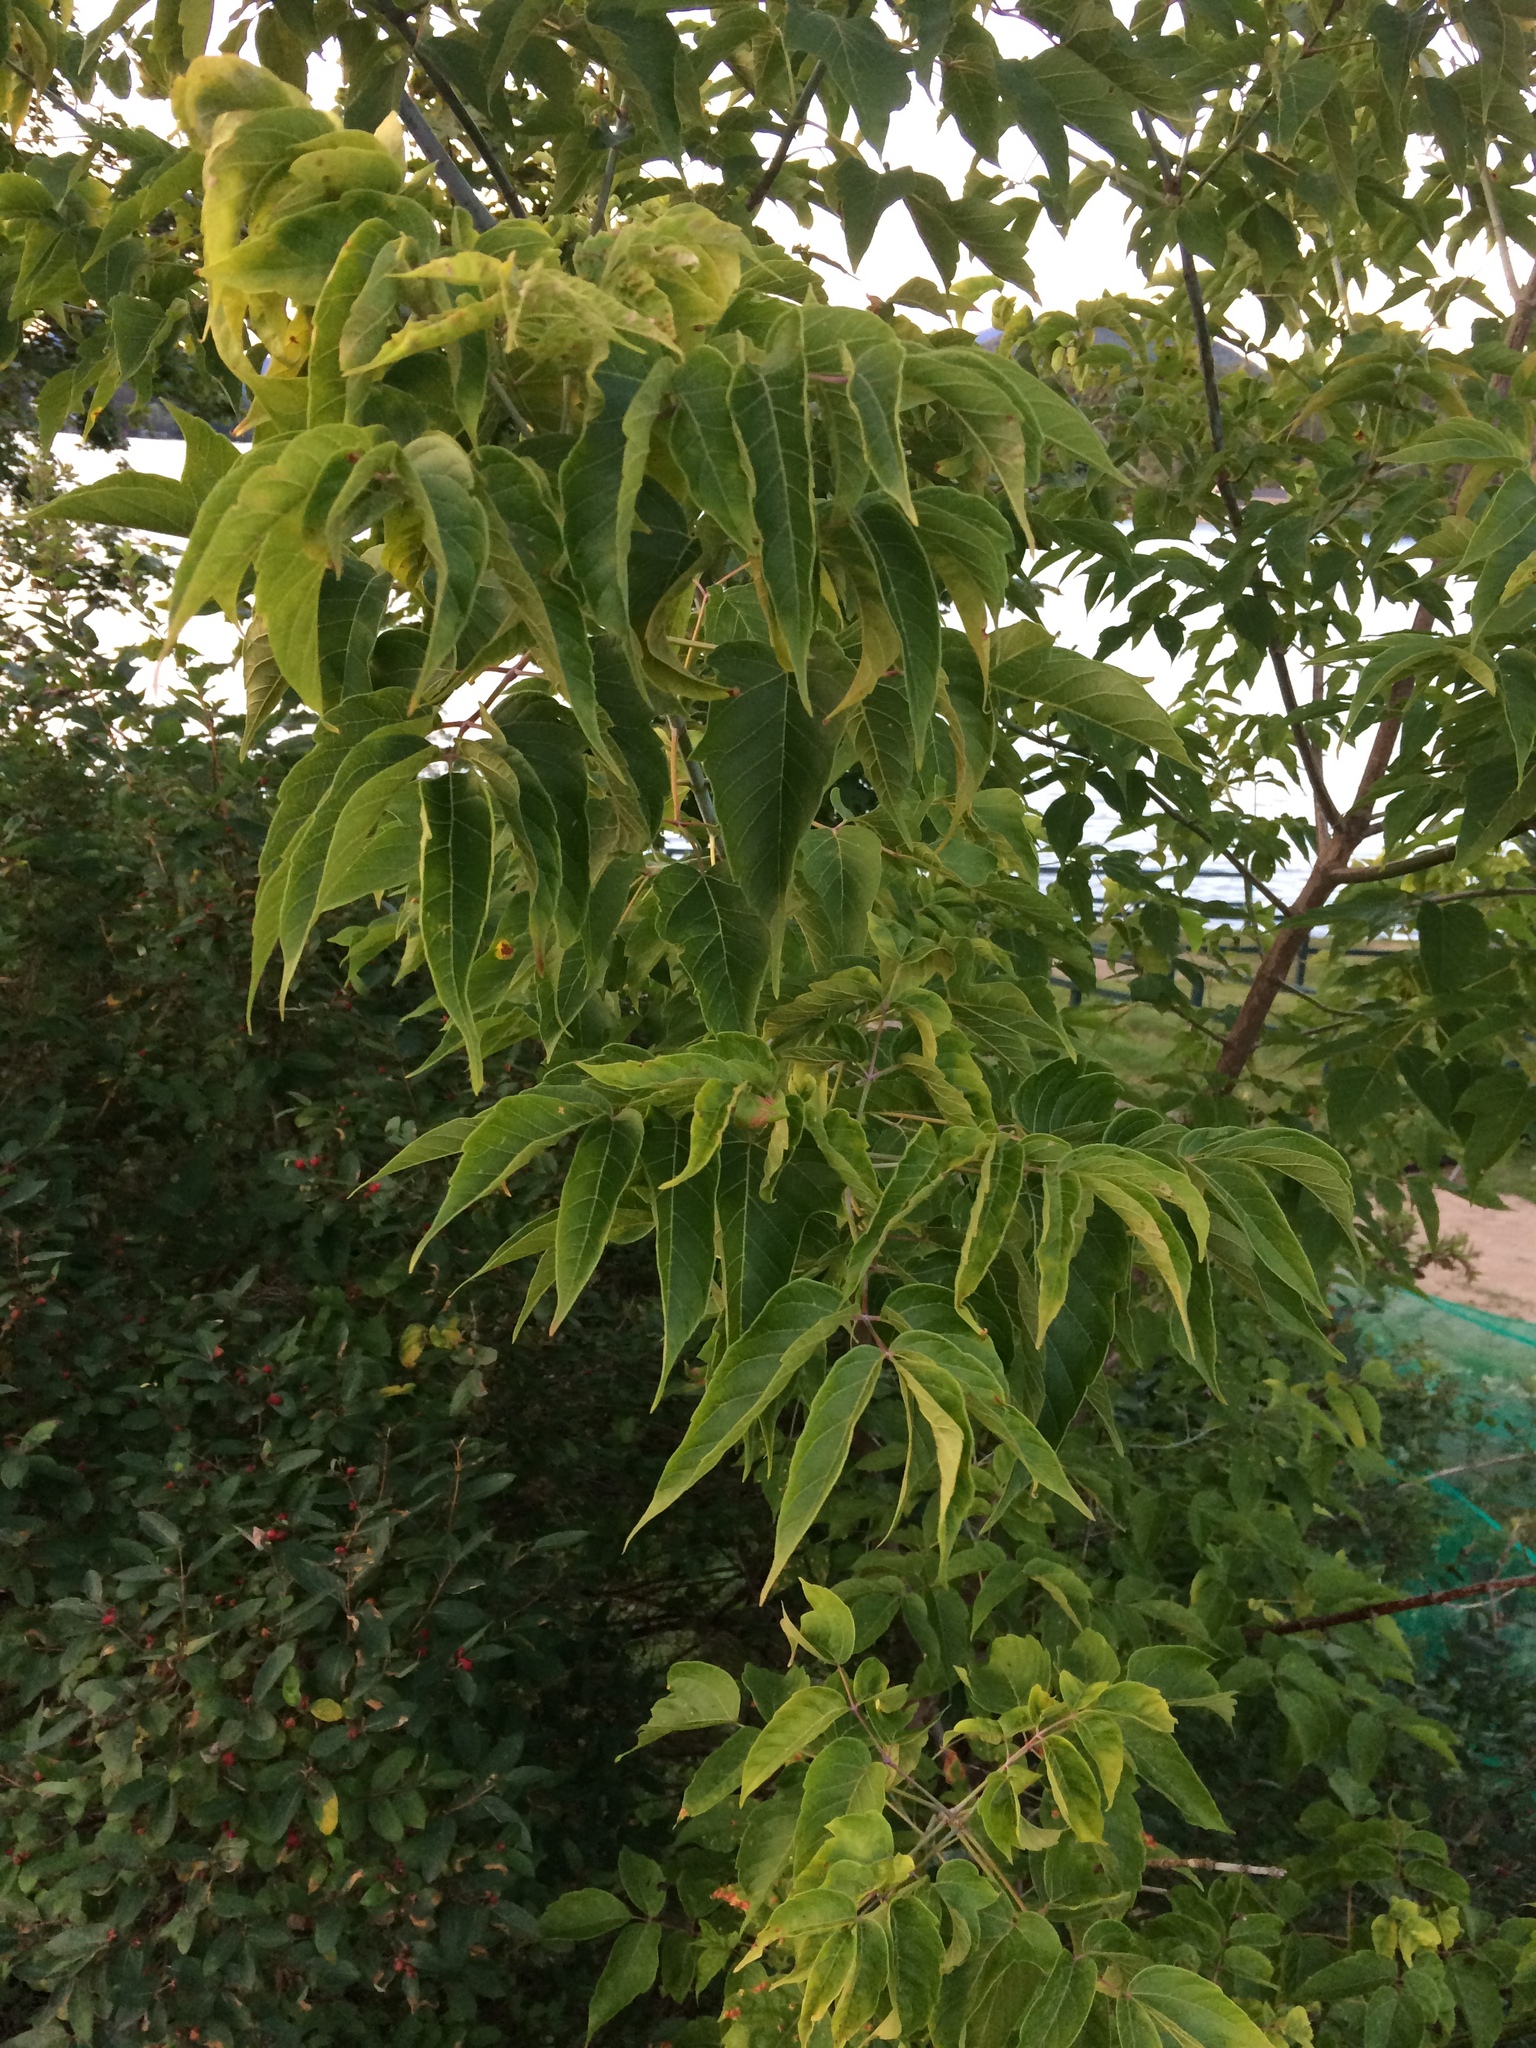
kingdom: Plantae
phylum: Tracheophyta
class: Magnoliopsida
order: Sapindales
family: Sapindaceae
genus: Acer
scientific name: Acer negundo
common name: Ashleaf maple
